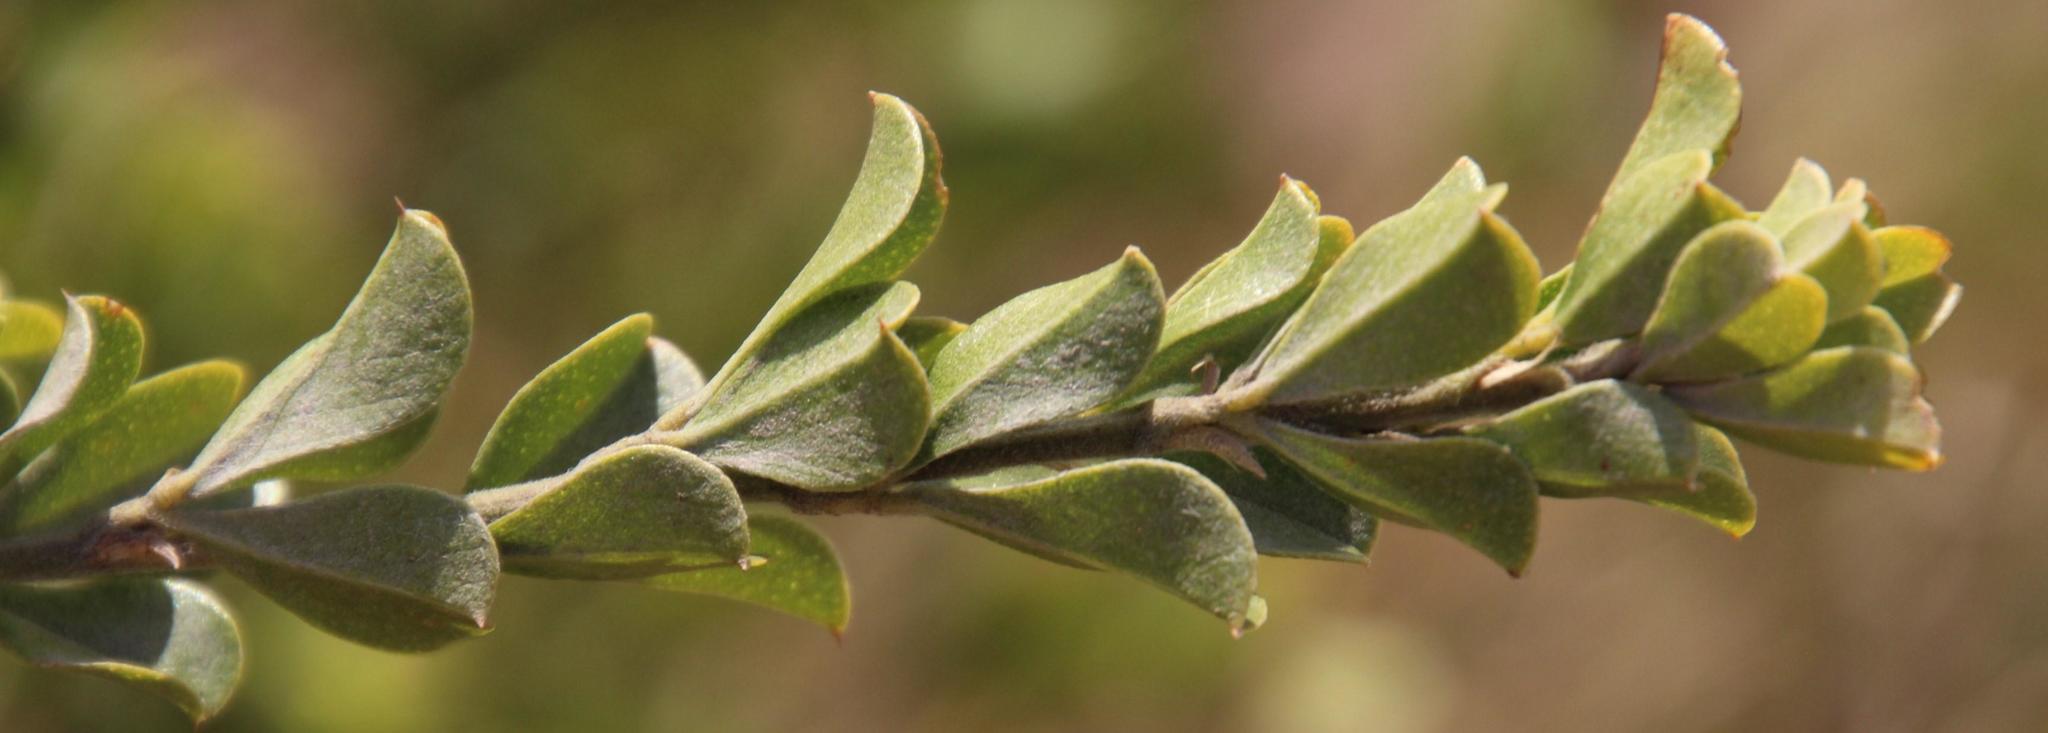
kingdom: Plantae
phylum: Tracheophyta
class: Magnoliopsida
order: Fabales
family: Fabaceae
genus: Psoralea
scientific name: Psoralea bracteolata
